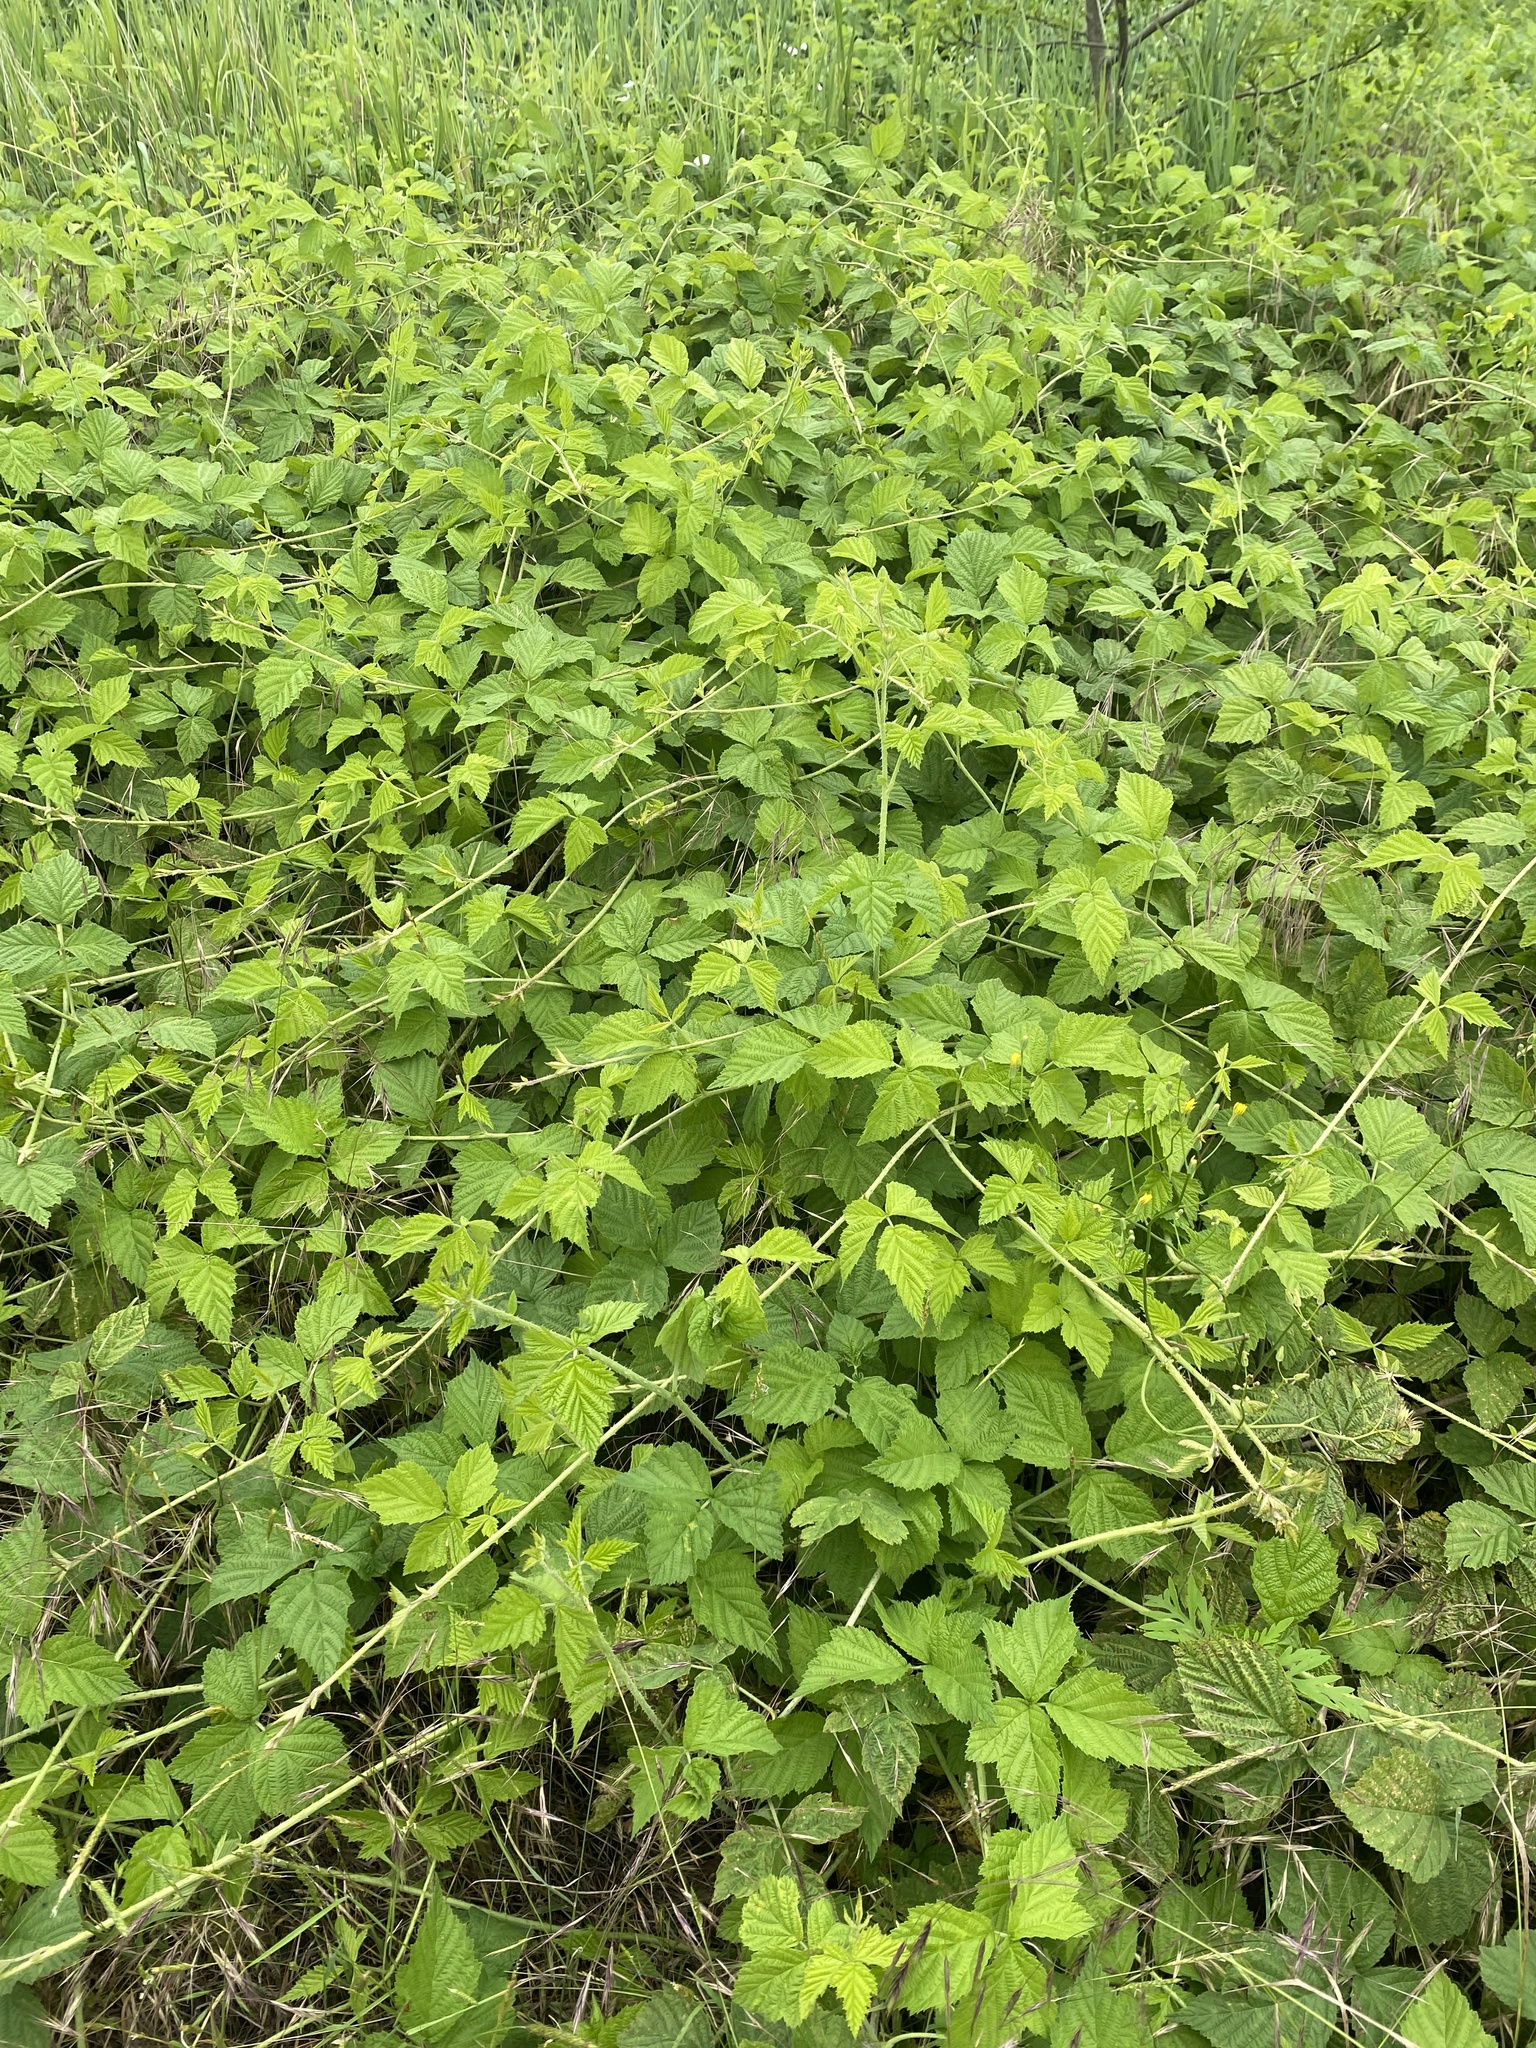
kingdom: Plantae
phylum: Tracheophyta
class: Magnoliopsida
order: Rosales
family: Rosaceae
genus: Rubus
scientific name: Rubus caesius
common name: Dewberry
